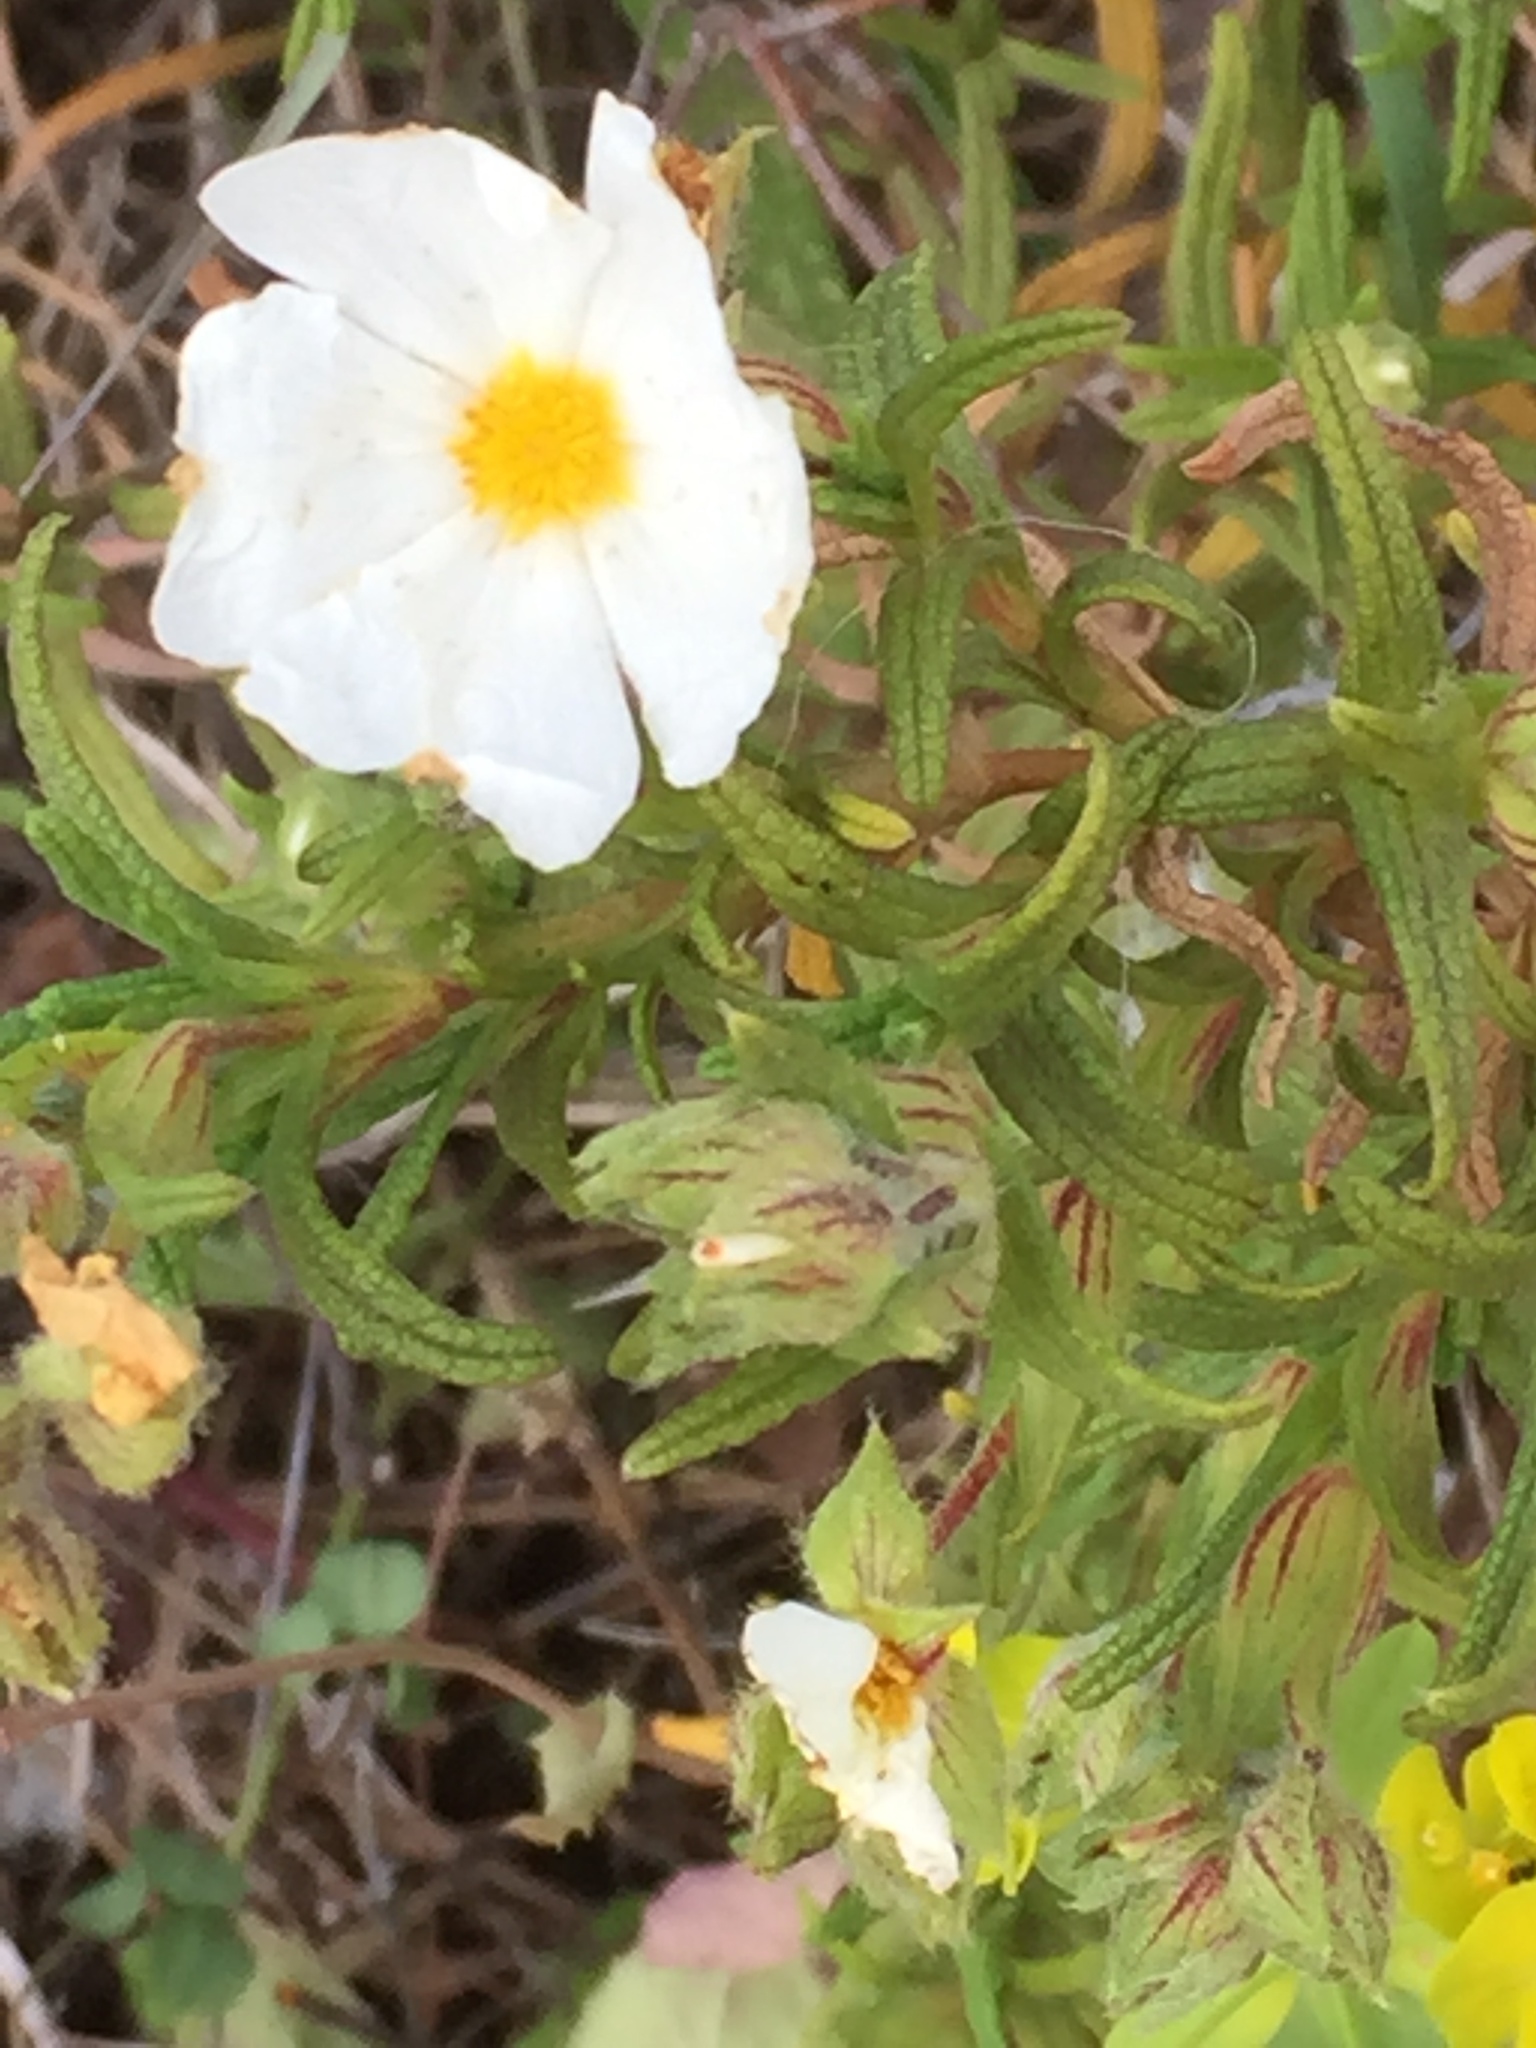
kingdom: Plantae
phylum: Tracheophyta
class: Magnoliopsida
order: Malvales
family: Cistaceae
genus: Cistus
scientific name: Cistus monspeliensis
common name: Montpelier cistus
